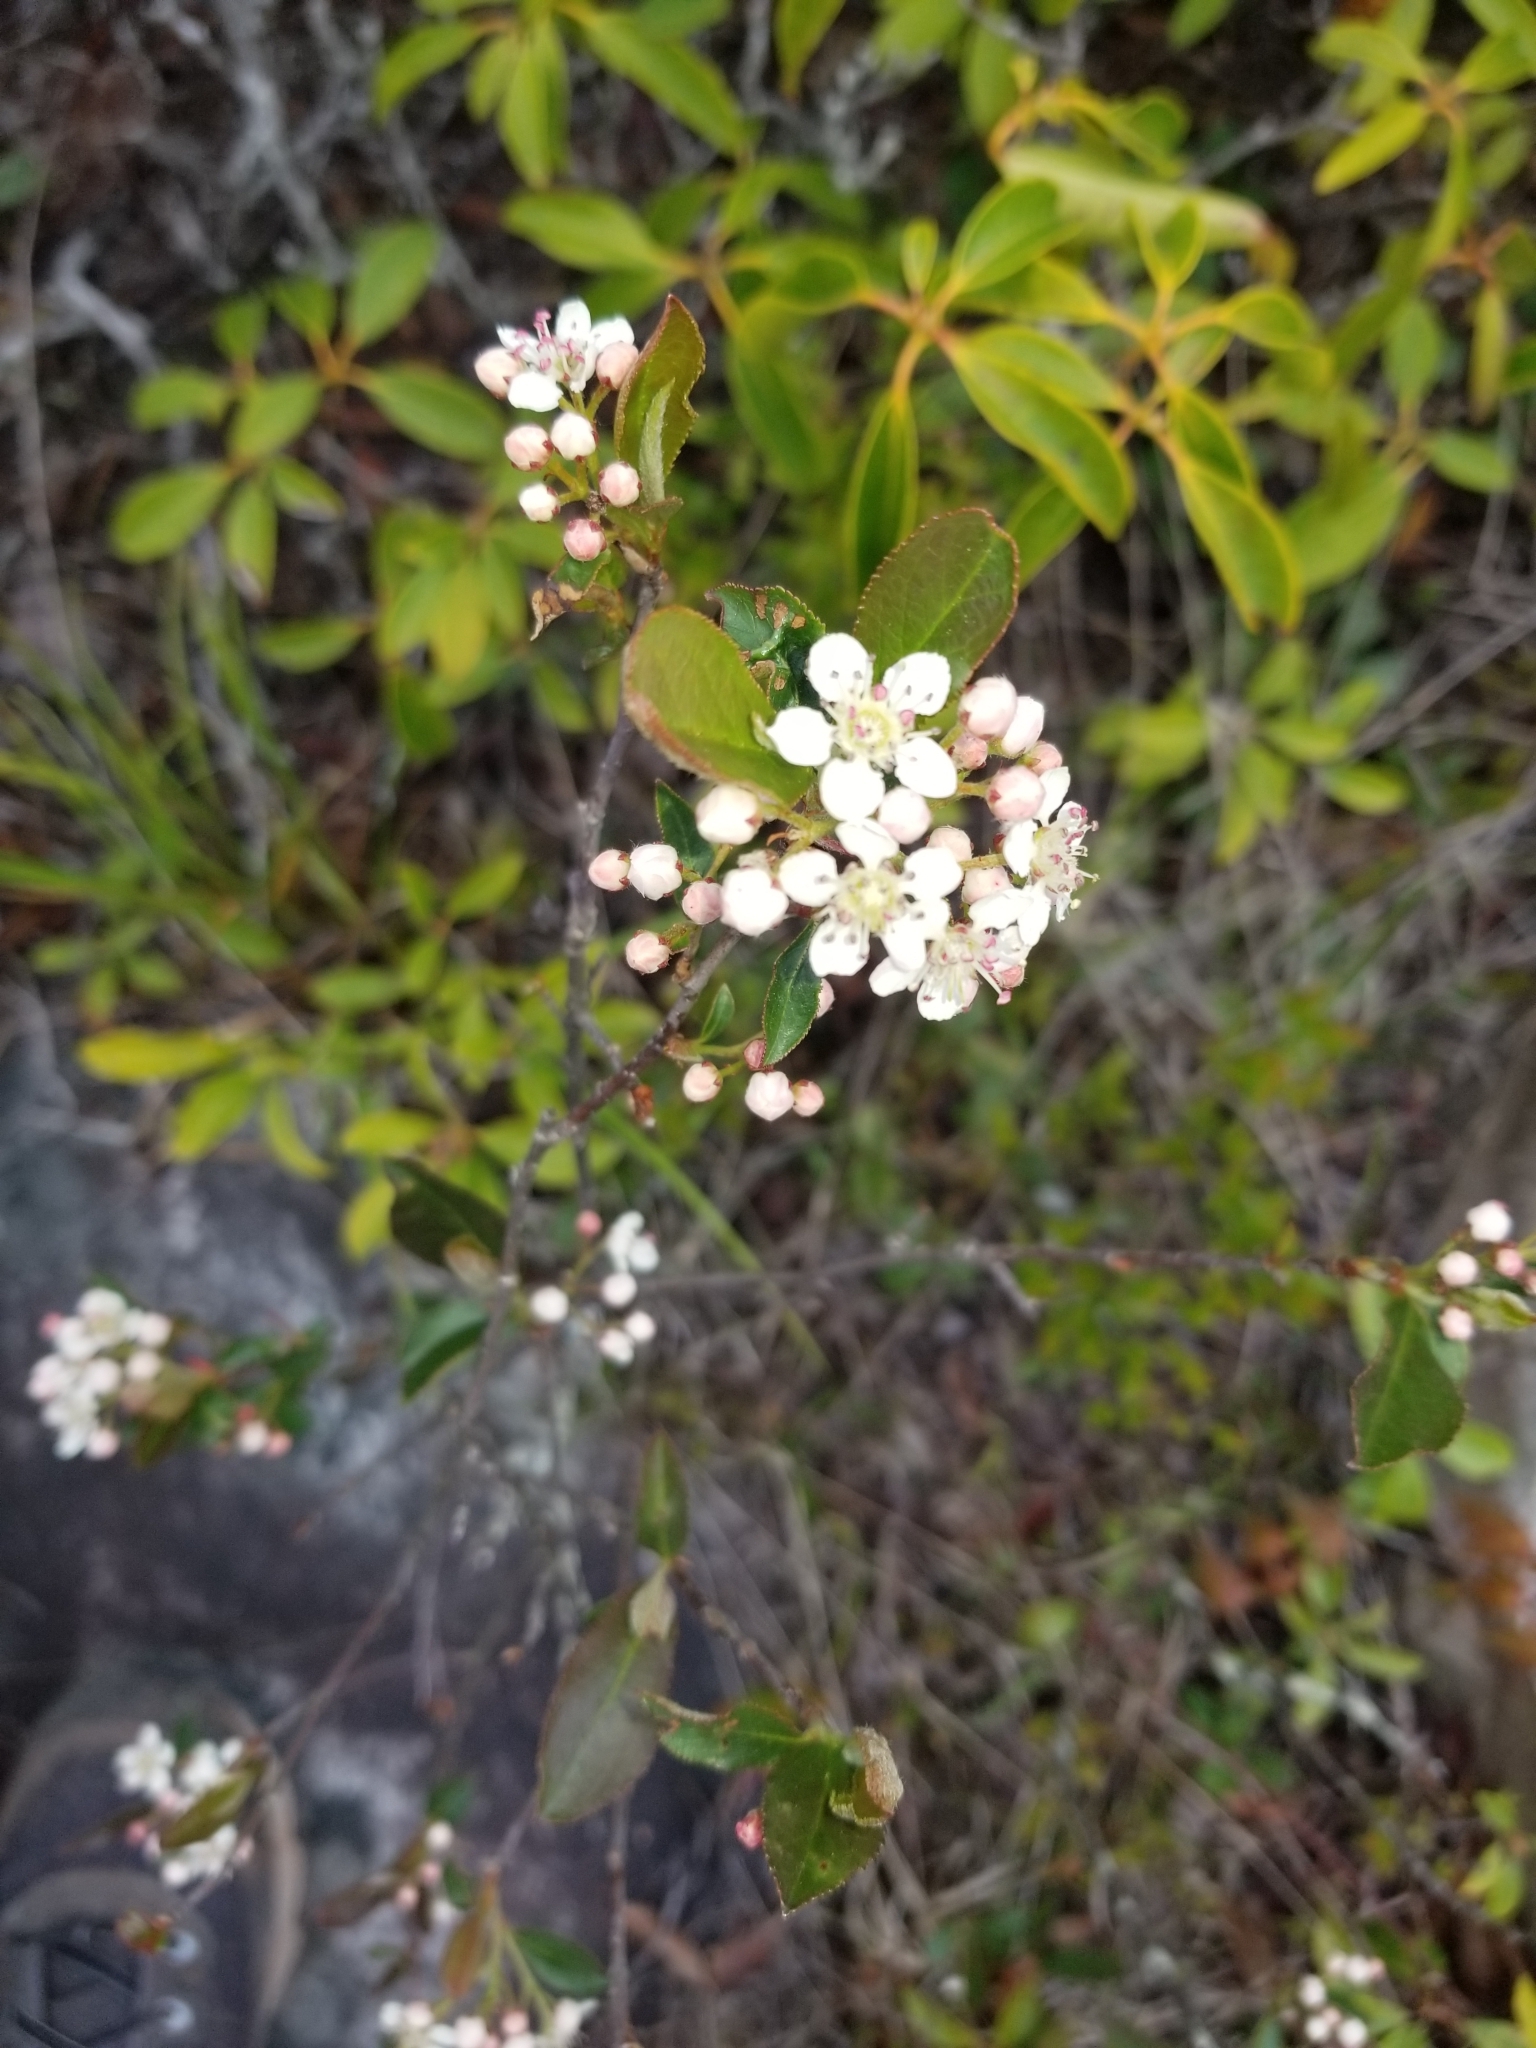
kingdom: Plantae
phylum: Tracheophyta
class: Magnoliopsida
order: Rosales
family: Rosaceae
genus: Aronia
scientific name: Aronia melanocarpa
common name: Black chokeberry
